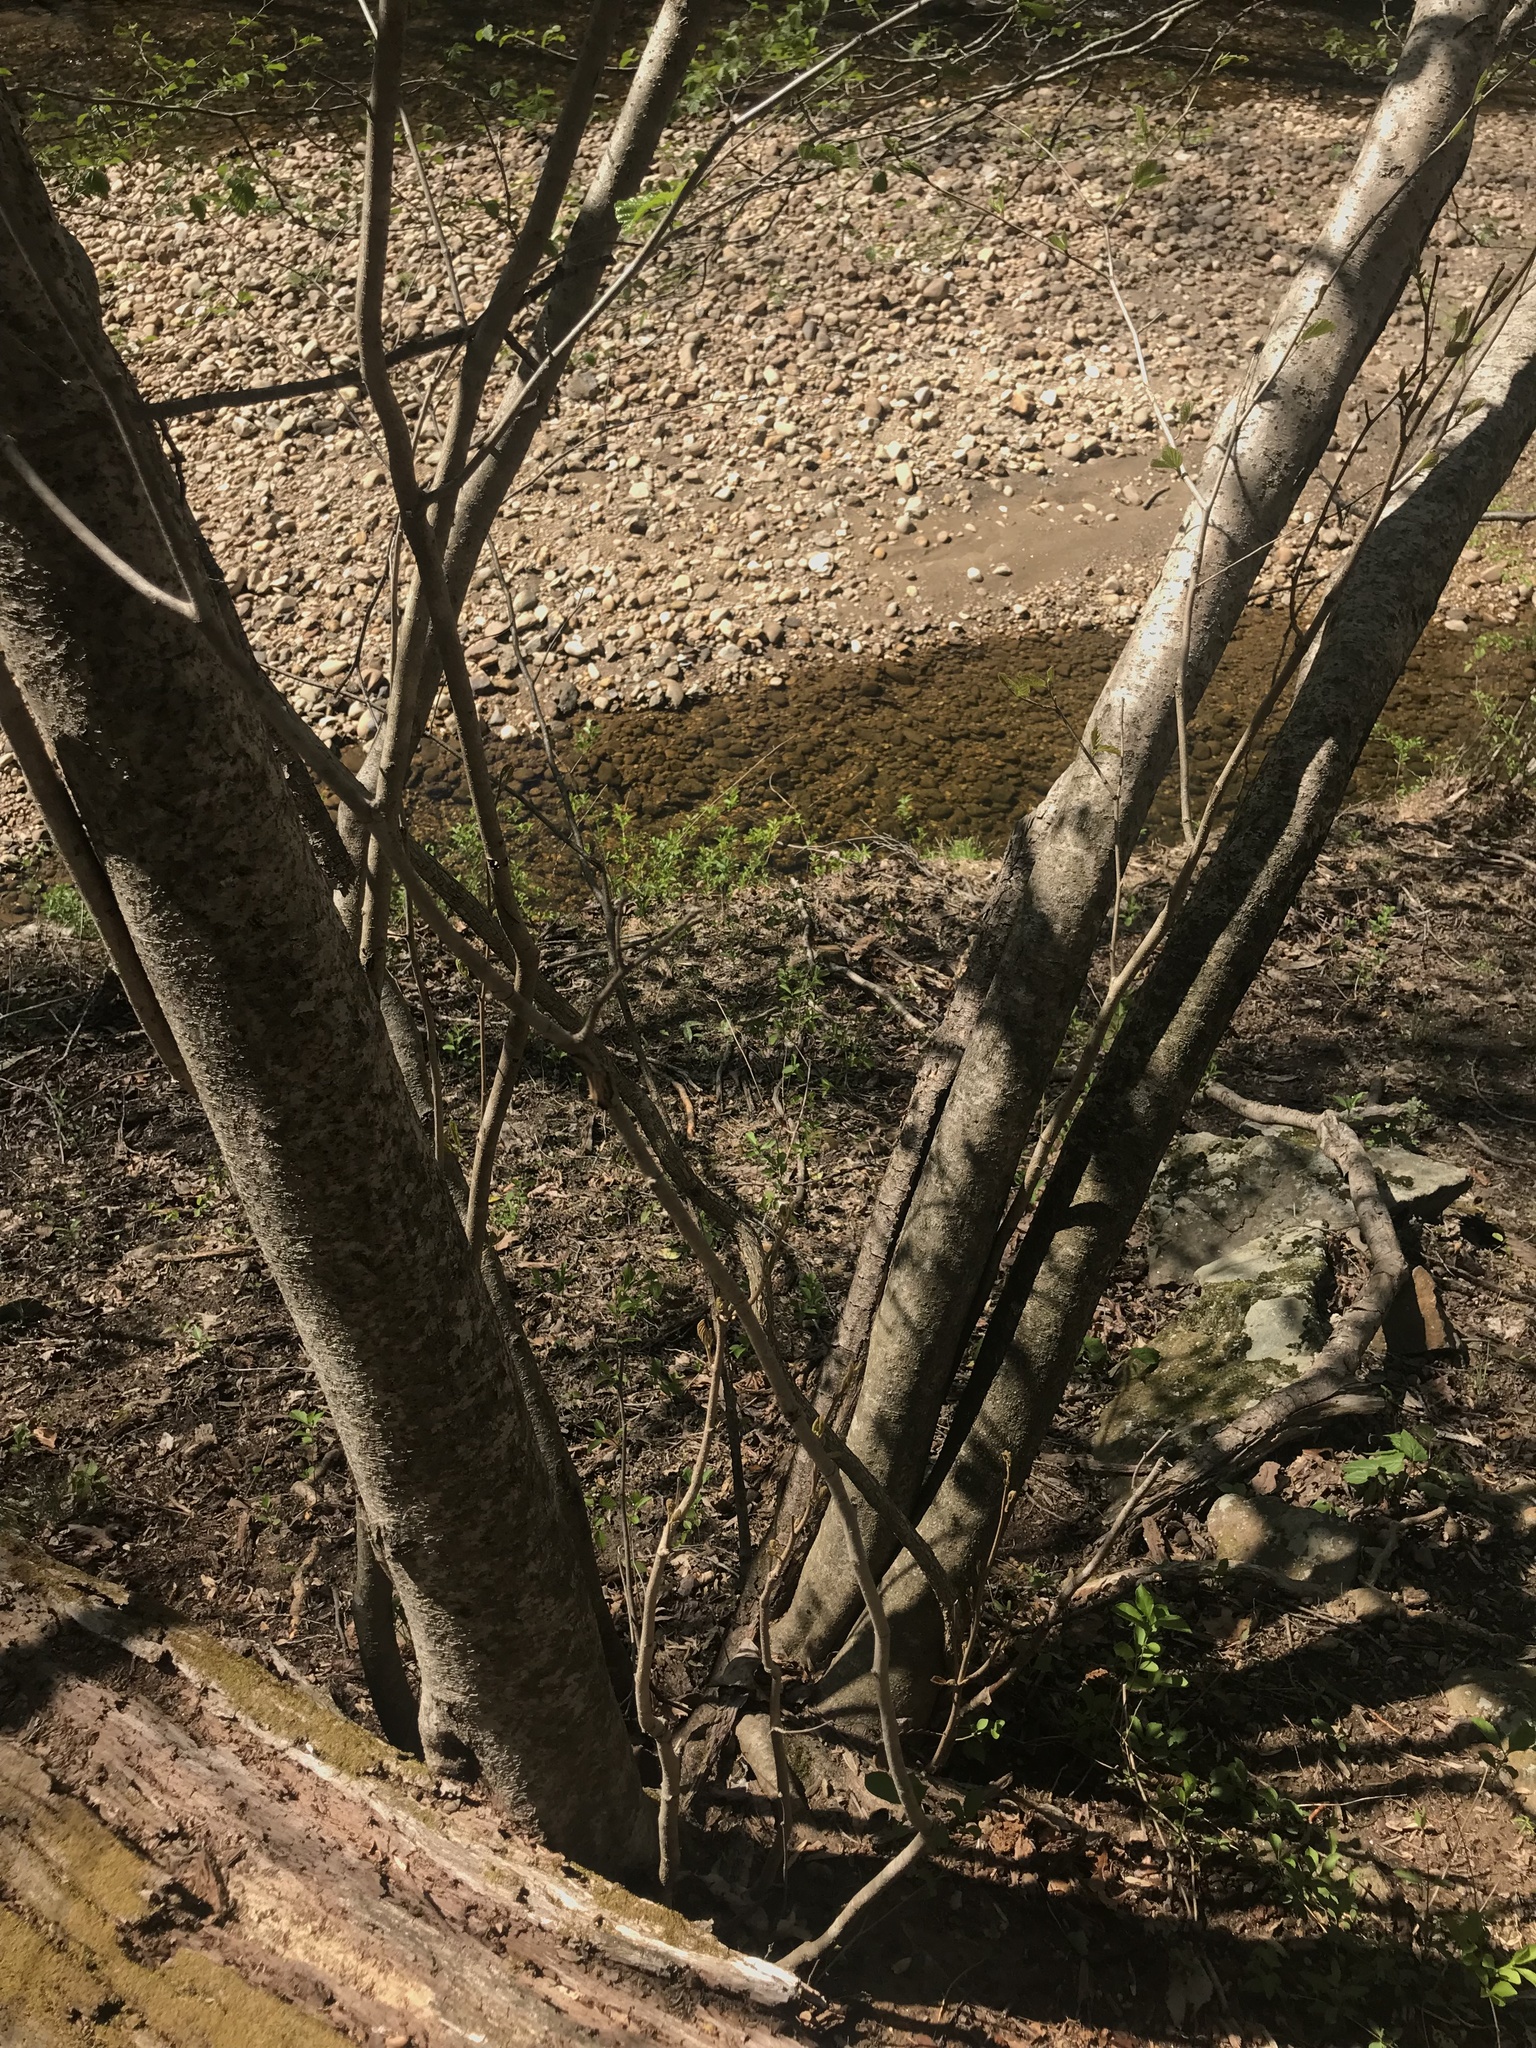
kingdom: Plantae
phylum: Tracheophyta
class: Magnoliopsida
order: Saxifragales
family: Hamamelidaceae
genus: Hamamelis
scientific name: Hamamelis virginiana
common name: Witch-hazel
